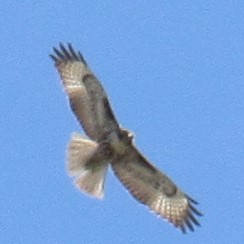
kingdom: Animalia
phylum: Chordata
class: Aves
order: Accipitriformes
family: Accipitridae
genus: Buteo
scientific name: Buteo jamaicensis
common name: Red-tailed hawk
